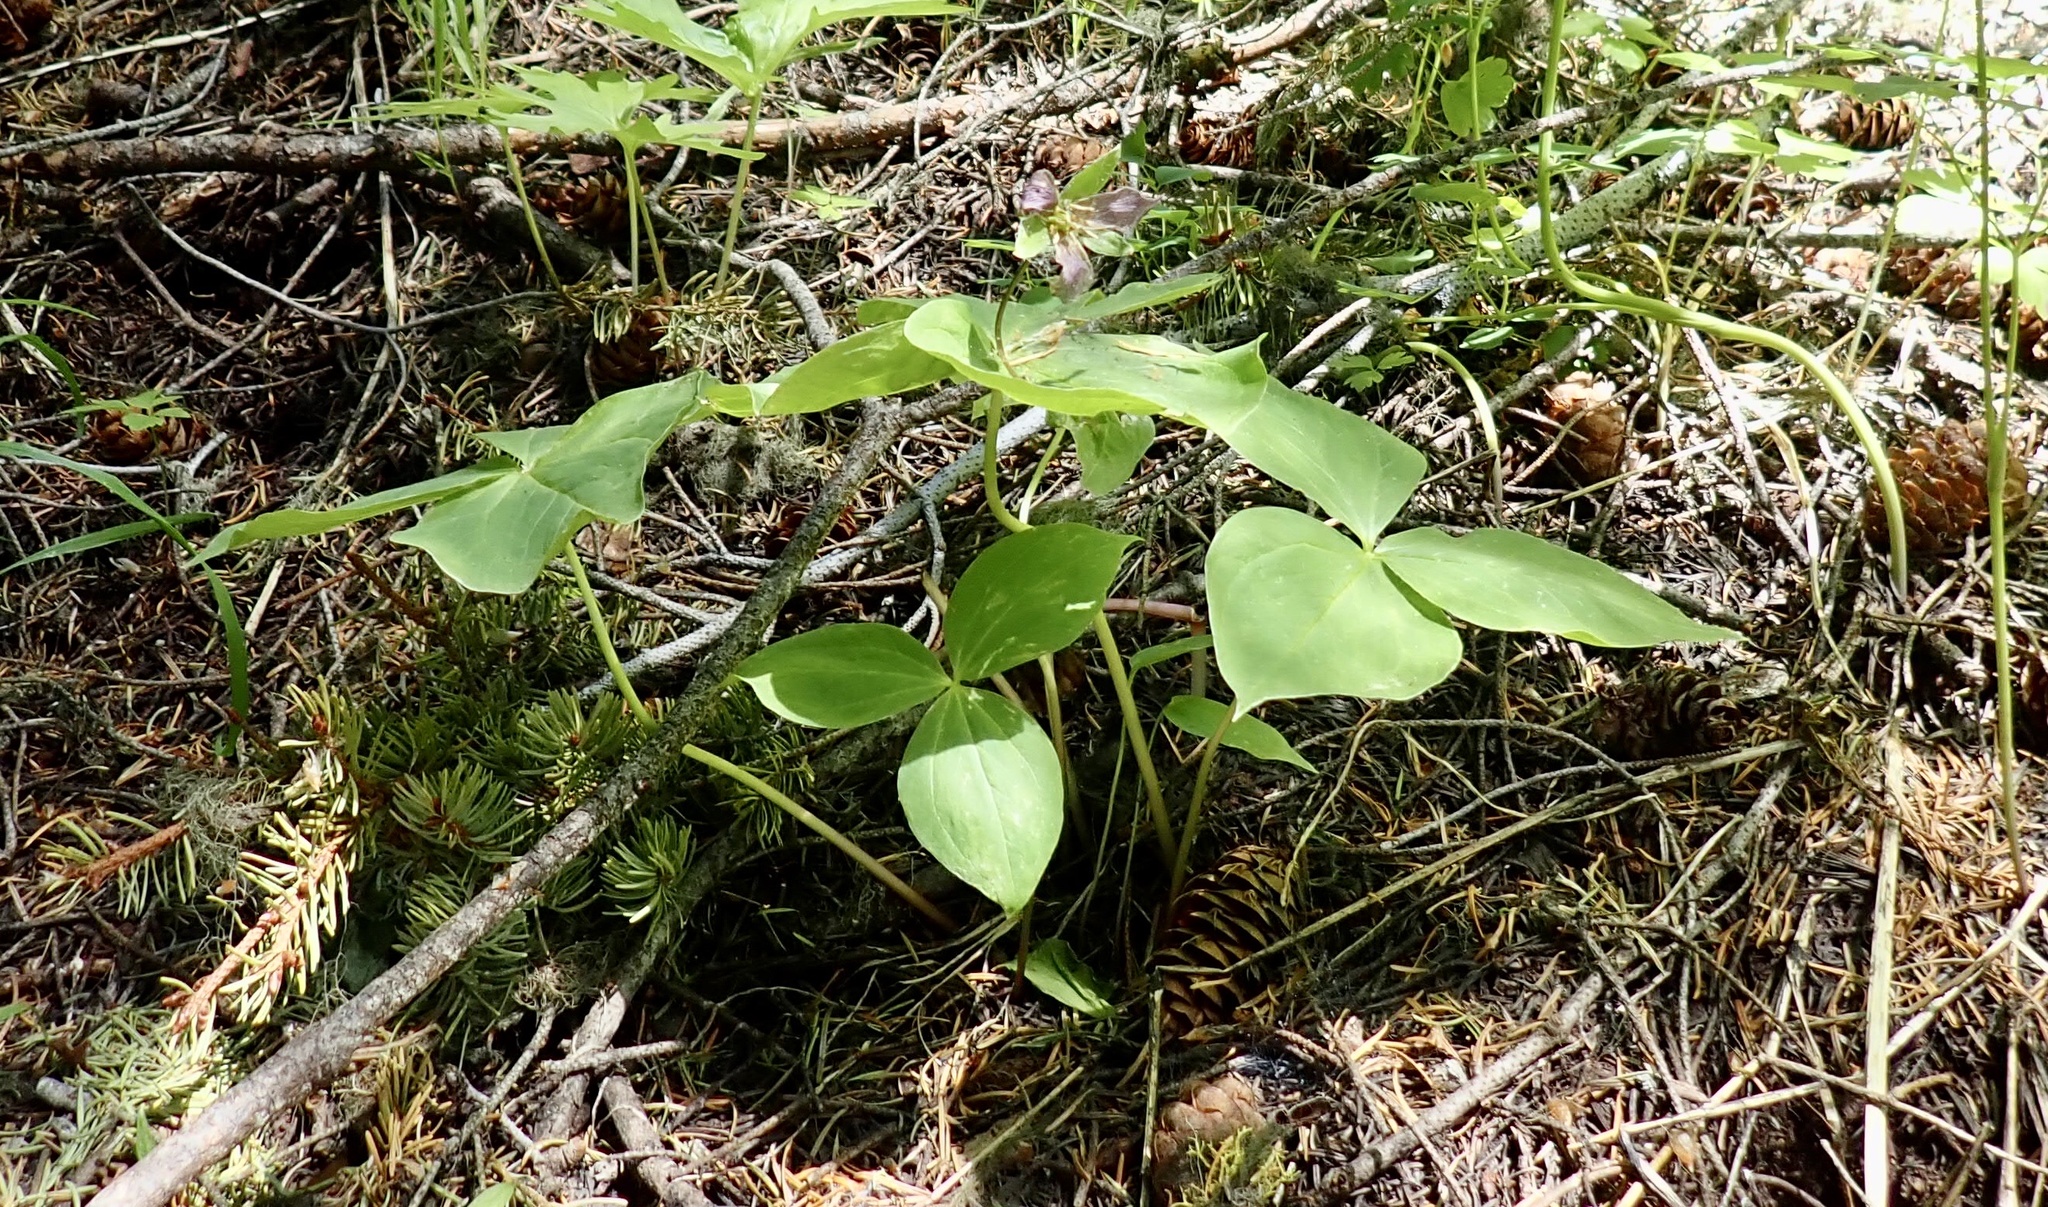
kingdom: Plantae
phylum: Tracheophyta
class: Liliopsida
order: Liliales
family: Melanthiaceae
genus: Trillium
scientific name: Trillium ovatum
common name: Pacific trillium
